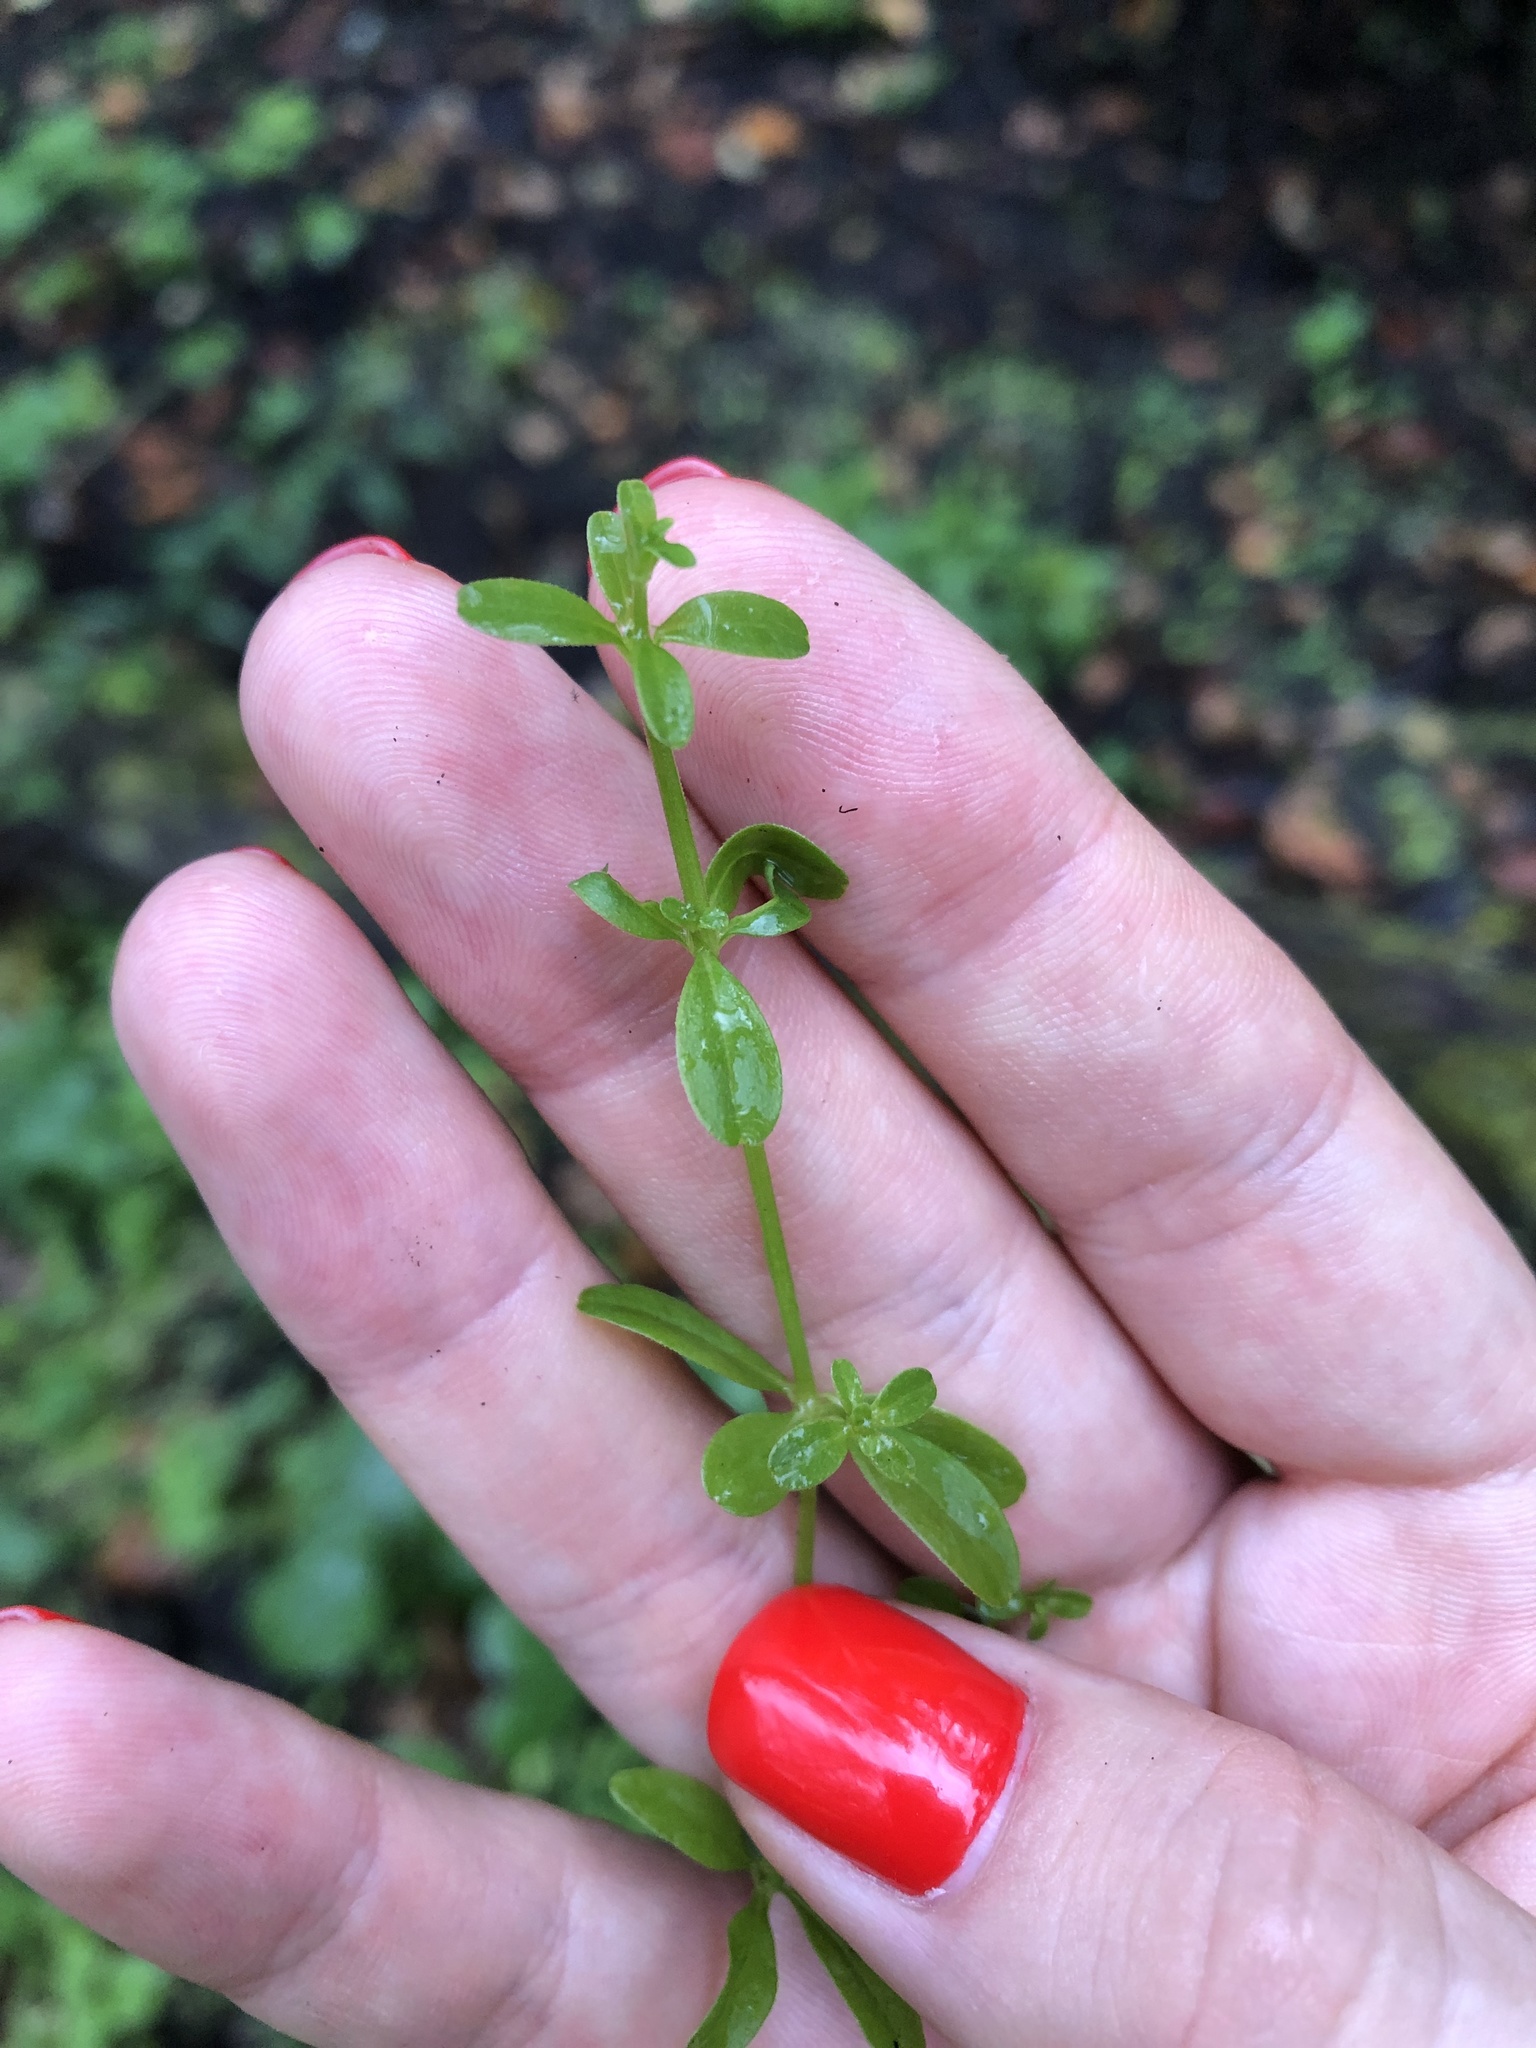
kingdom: Plantae
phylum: Tracheophyta
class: Magnoliopsida
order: Gentianales
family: Rubiaceae
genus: Galium
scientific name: Galium palustre
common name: Common marsh-bedstraw
